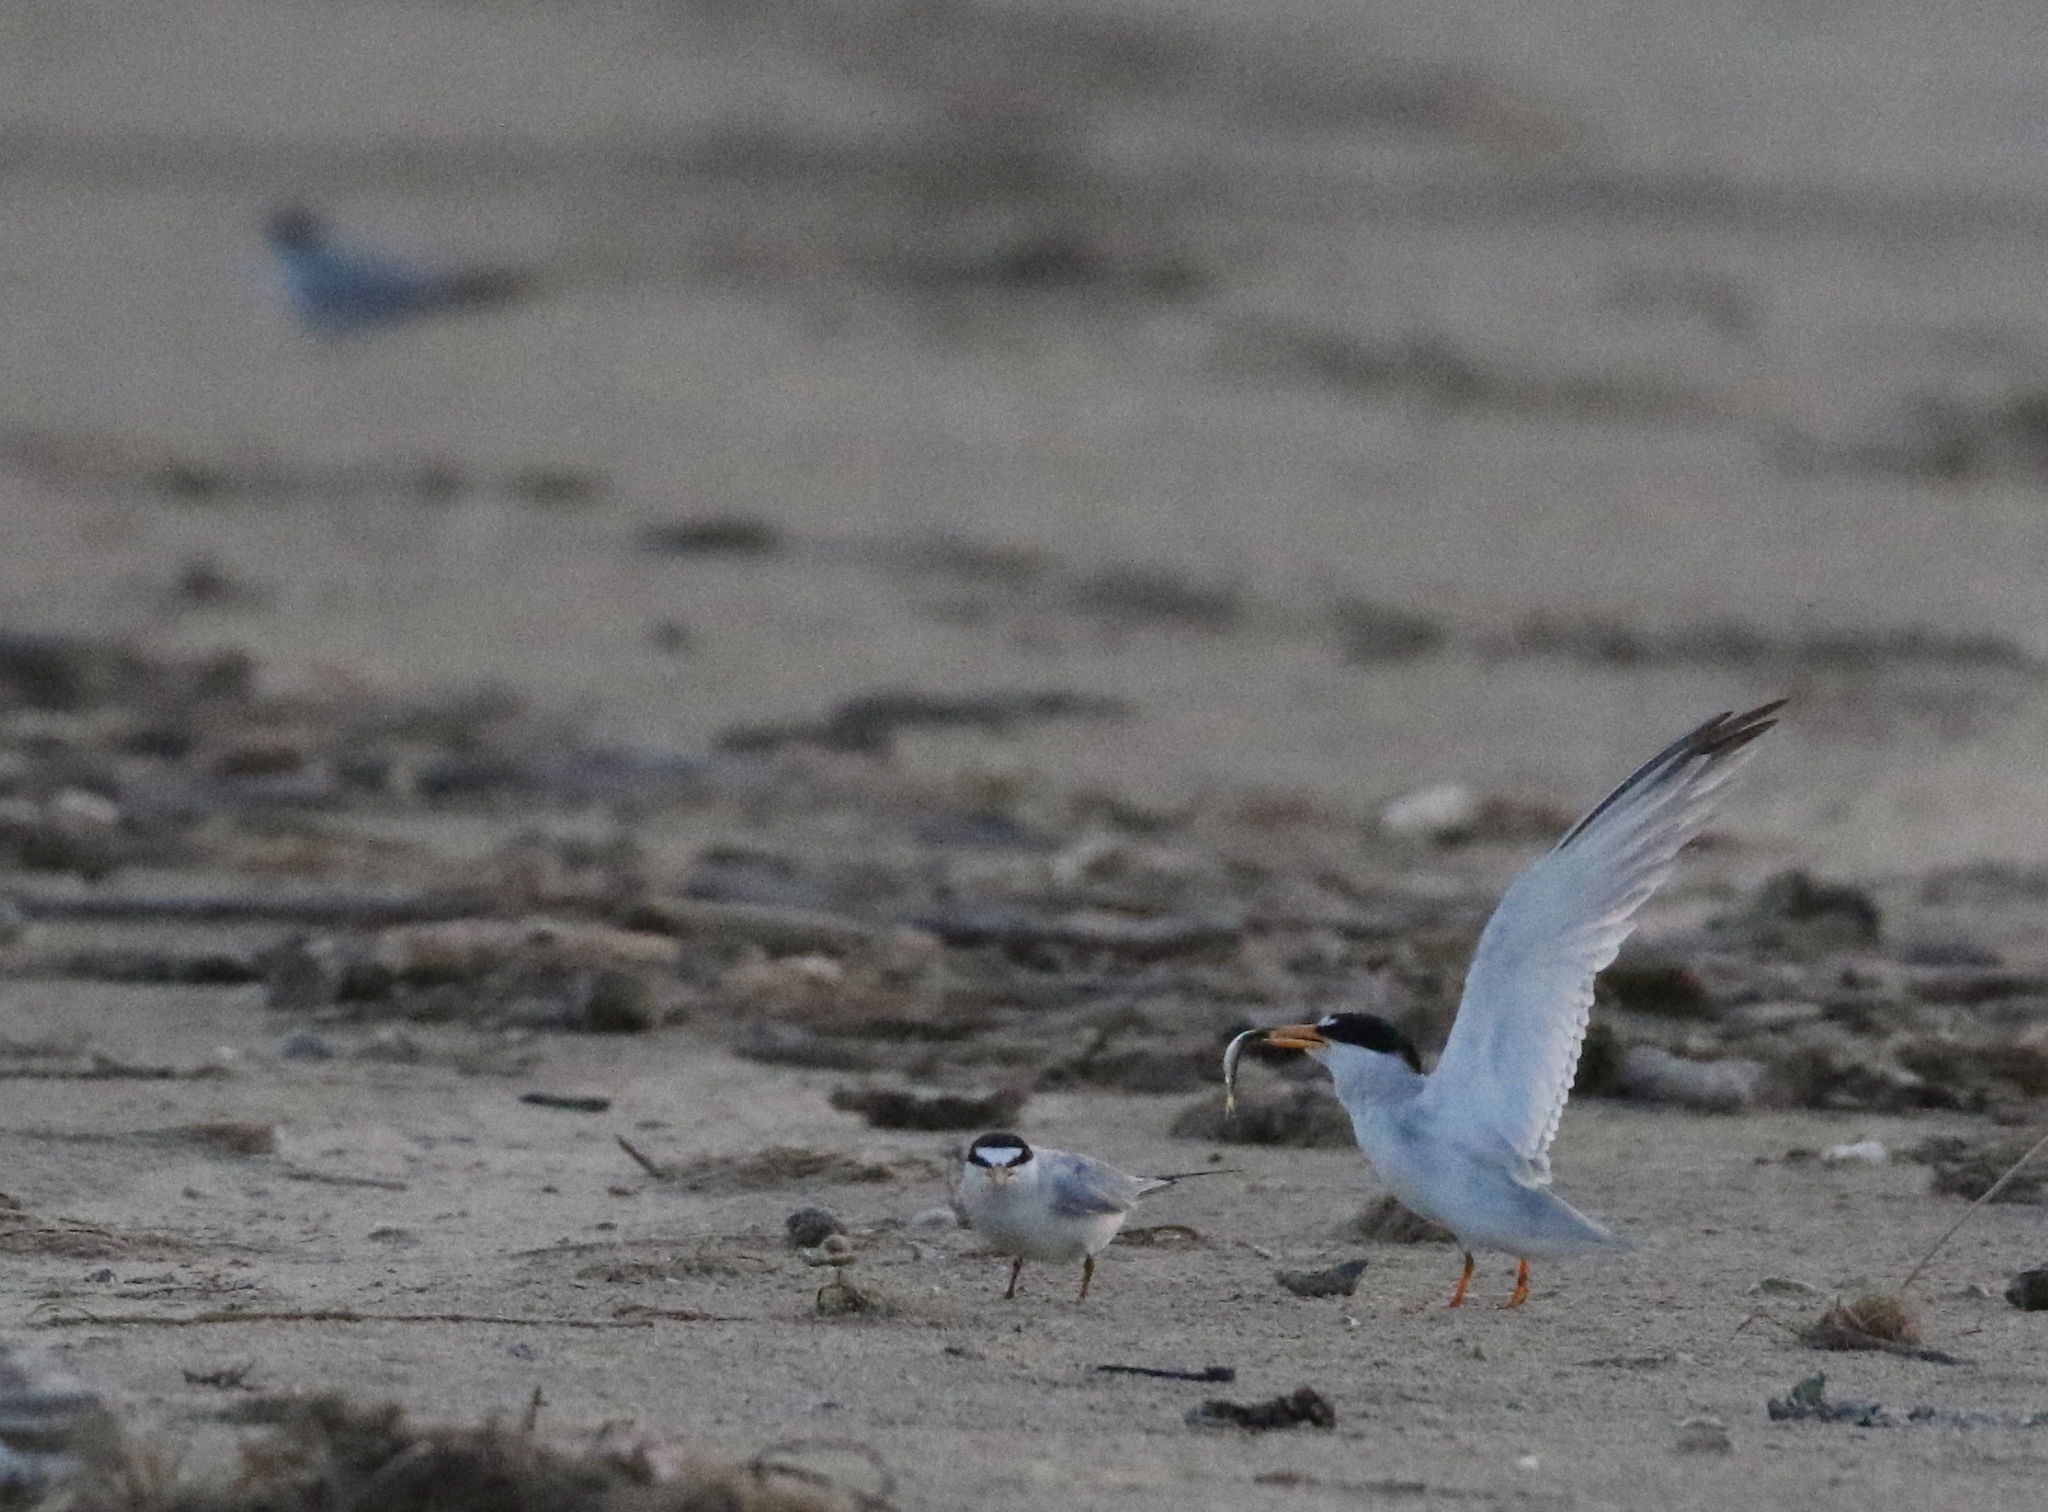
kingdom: Animalia
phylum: Chordata
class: Aves
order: Charadriiformes
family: Laridae
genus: Sternula
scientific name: Sternula antillarum
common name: Least tern
